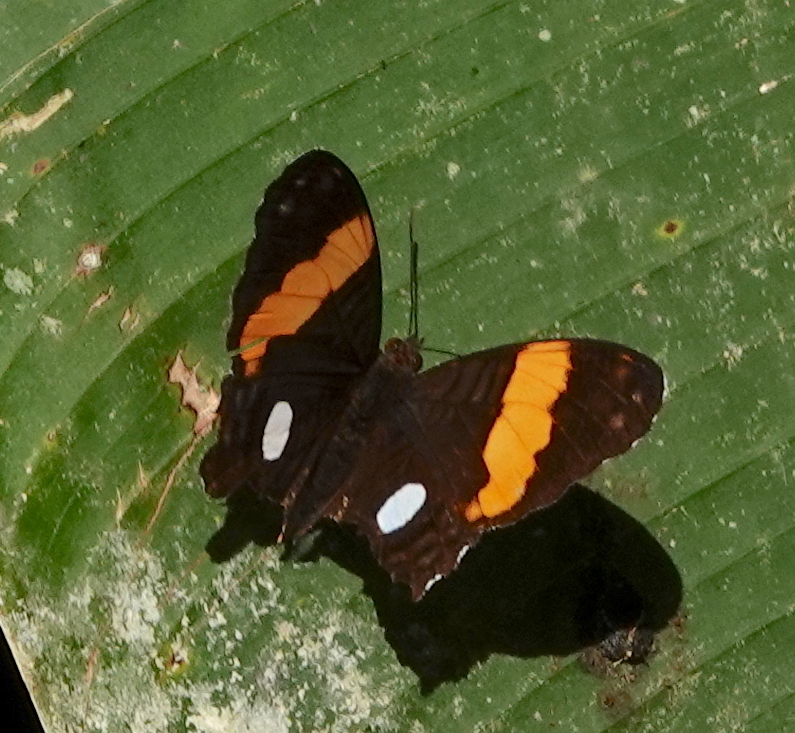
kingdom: Animalia
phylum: Arthropoda
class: Insecta
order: Lepidoptera
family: Nymphalidae
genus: Limenitis
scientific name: Limenitis leucophthalma
